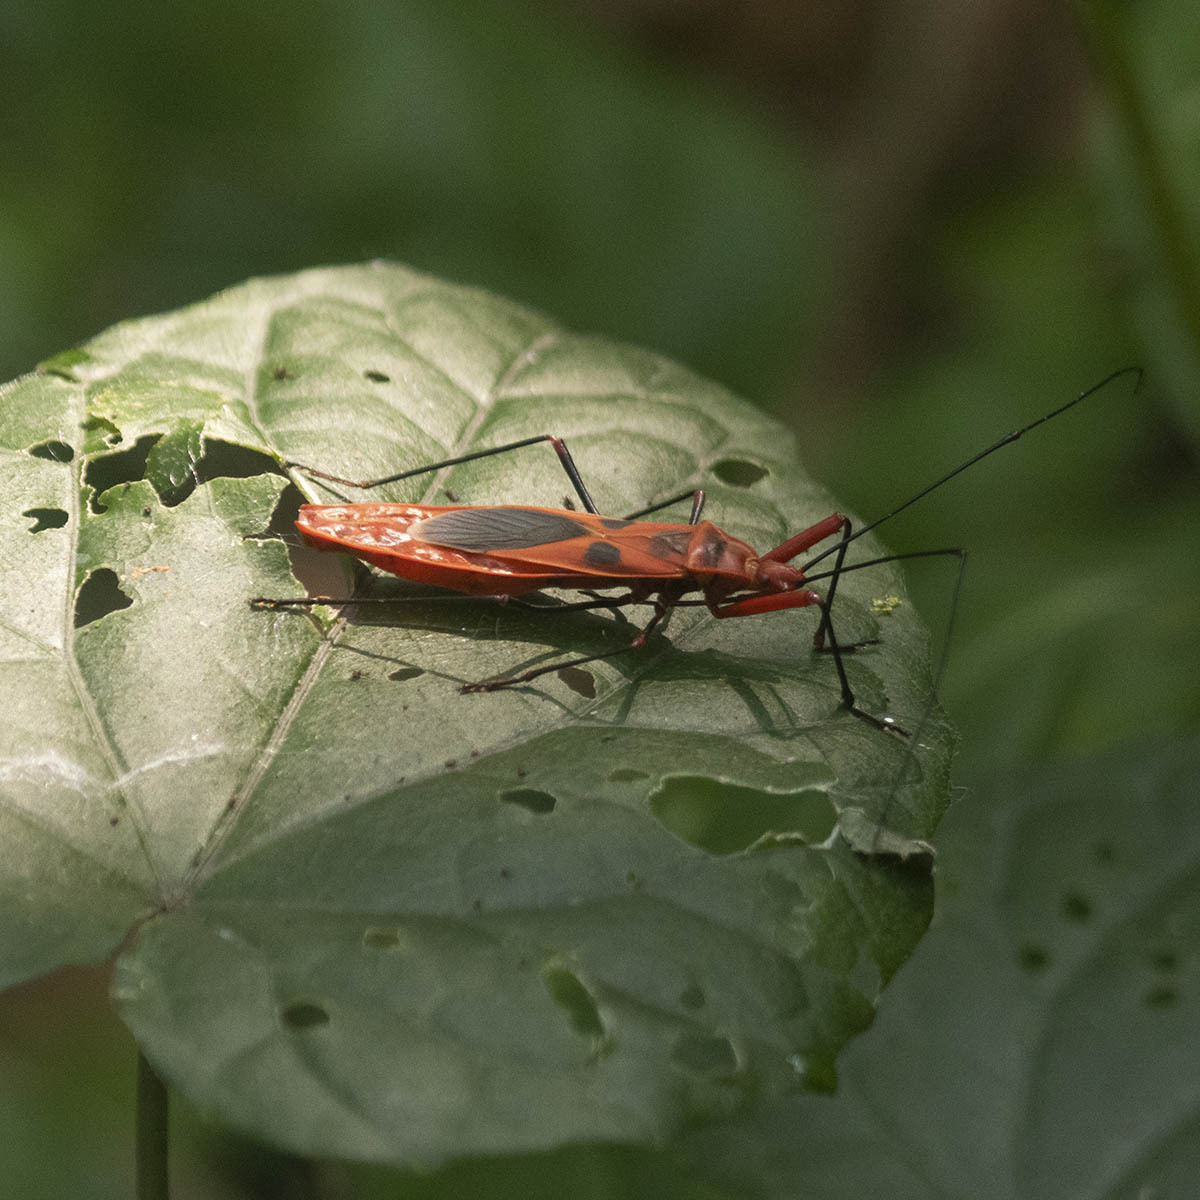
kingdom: Animalia
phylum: Arthropoda
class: Insecta
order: Hemiptera
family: Largidae
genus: Macrocheraia
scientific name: Macrocheraia grandis
